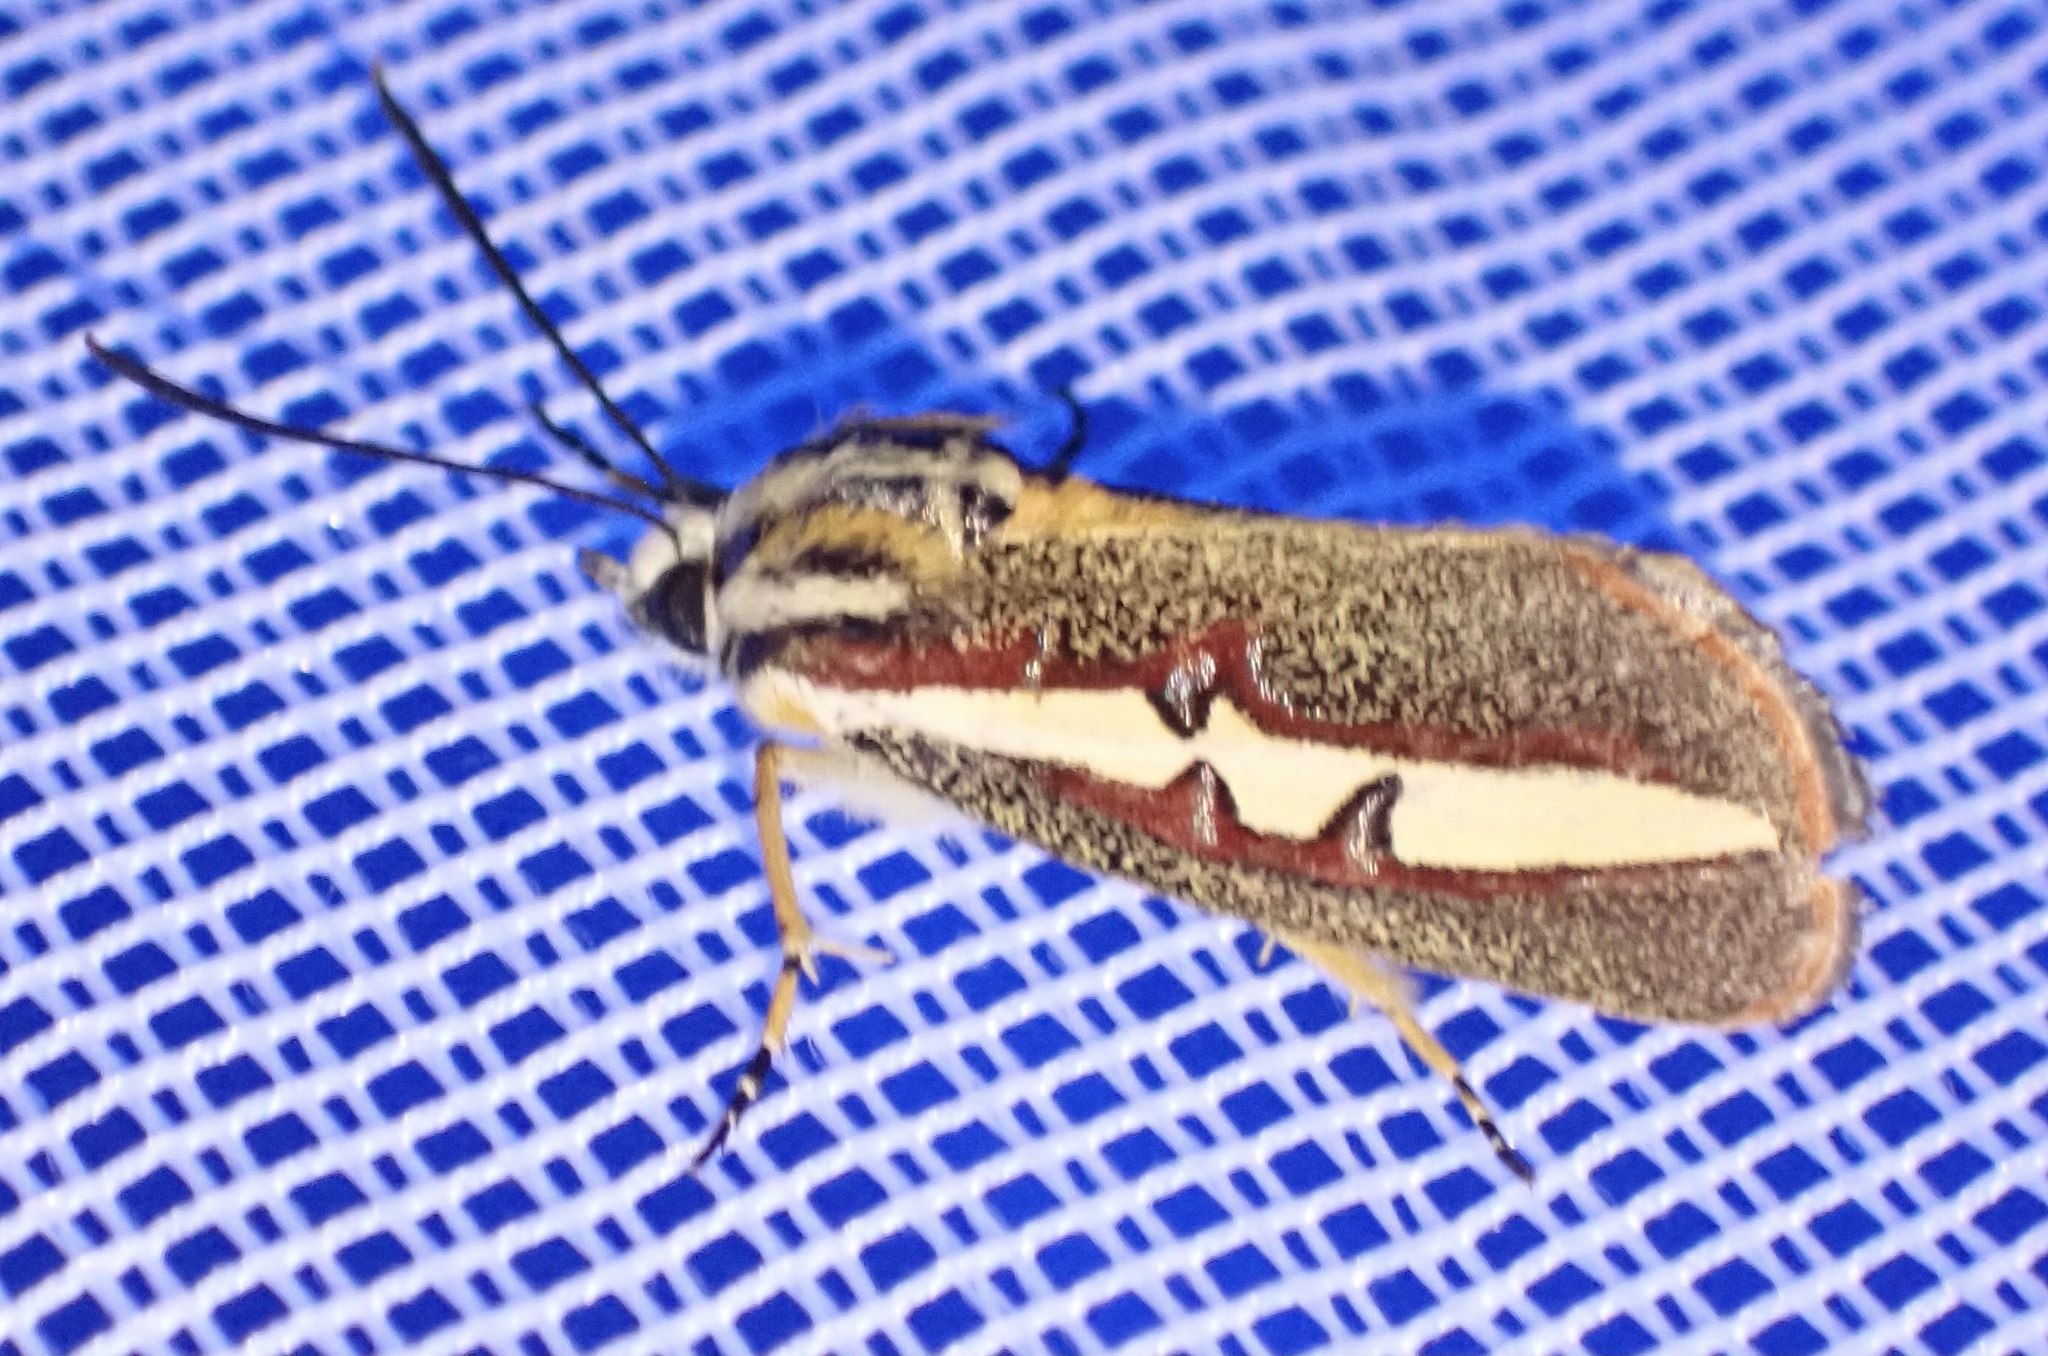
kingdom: Animalia
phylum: Arthropoda
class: Insecta
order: Lepidoptera
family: Noctuidae
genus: Aegocera
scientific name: Aegocera rectilinea
